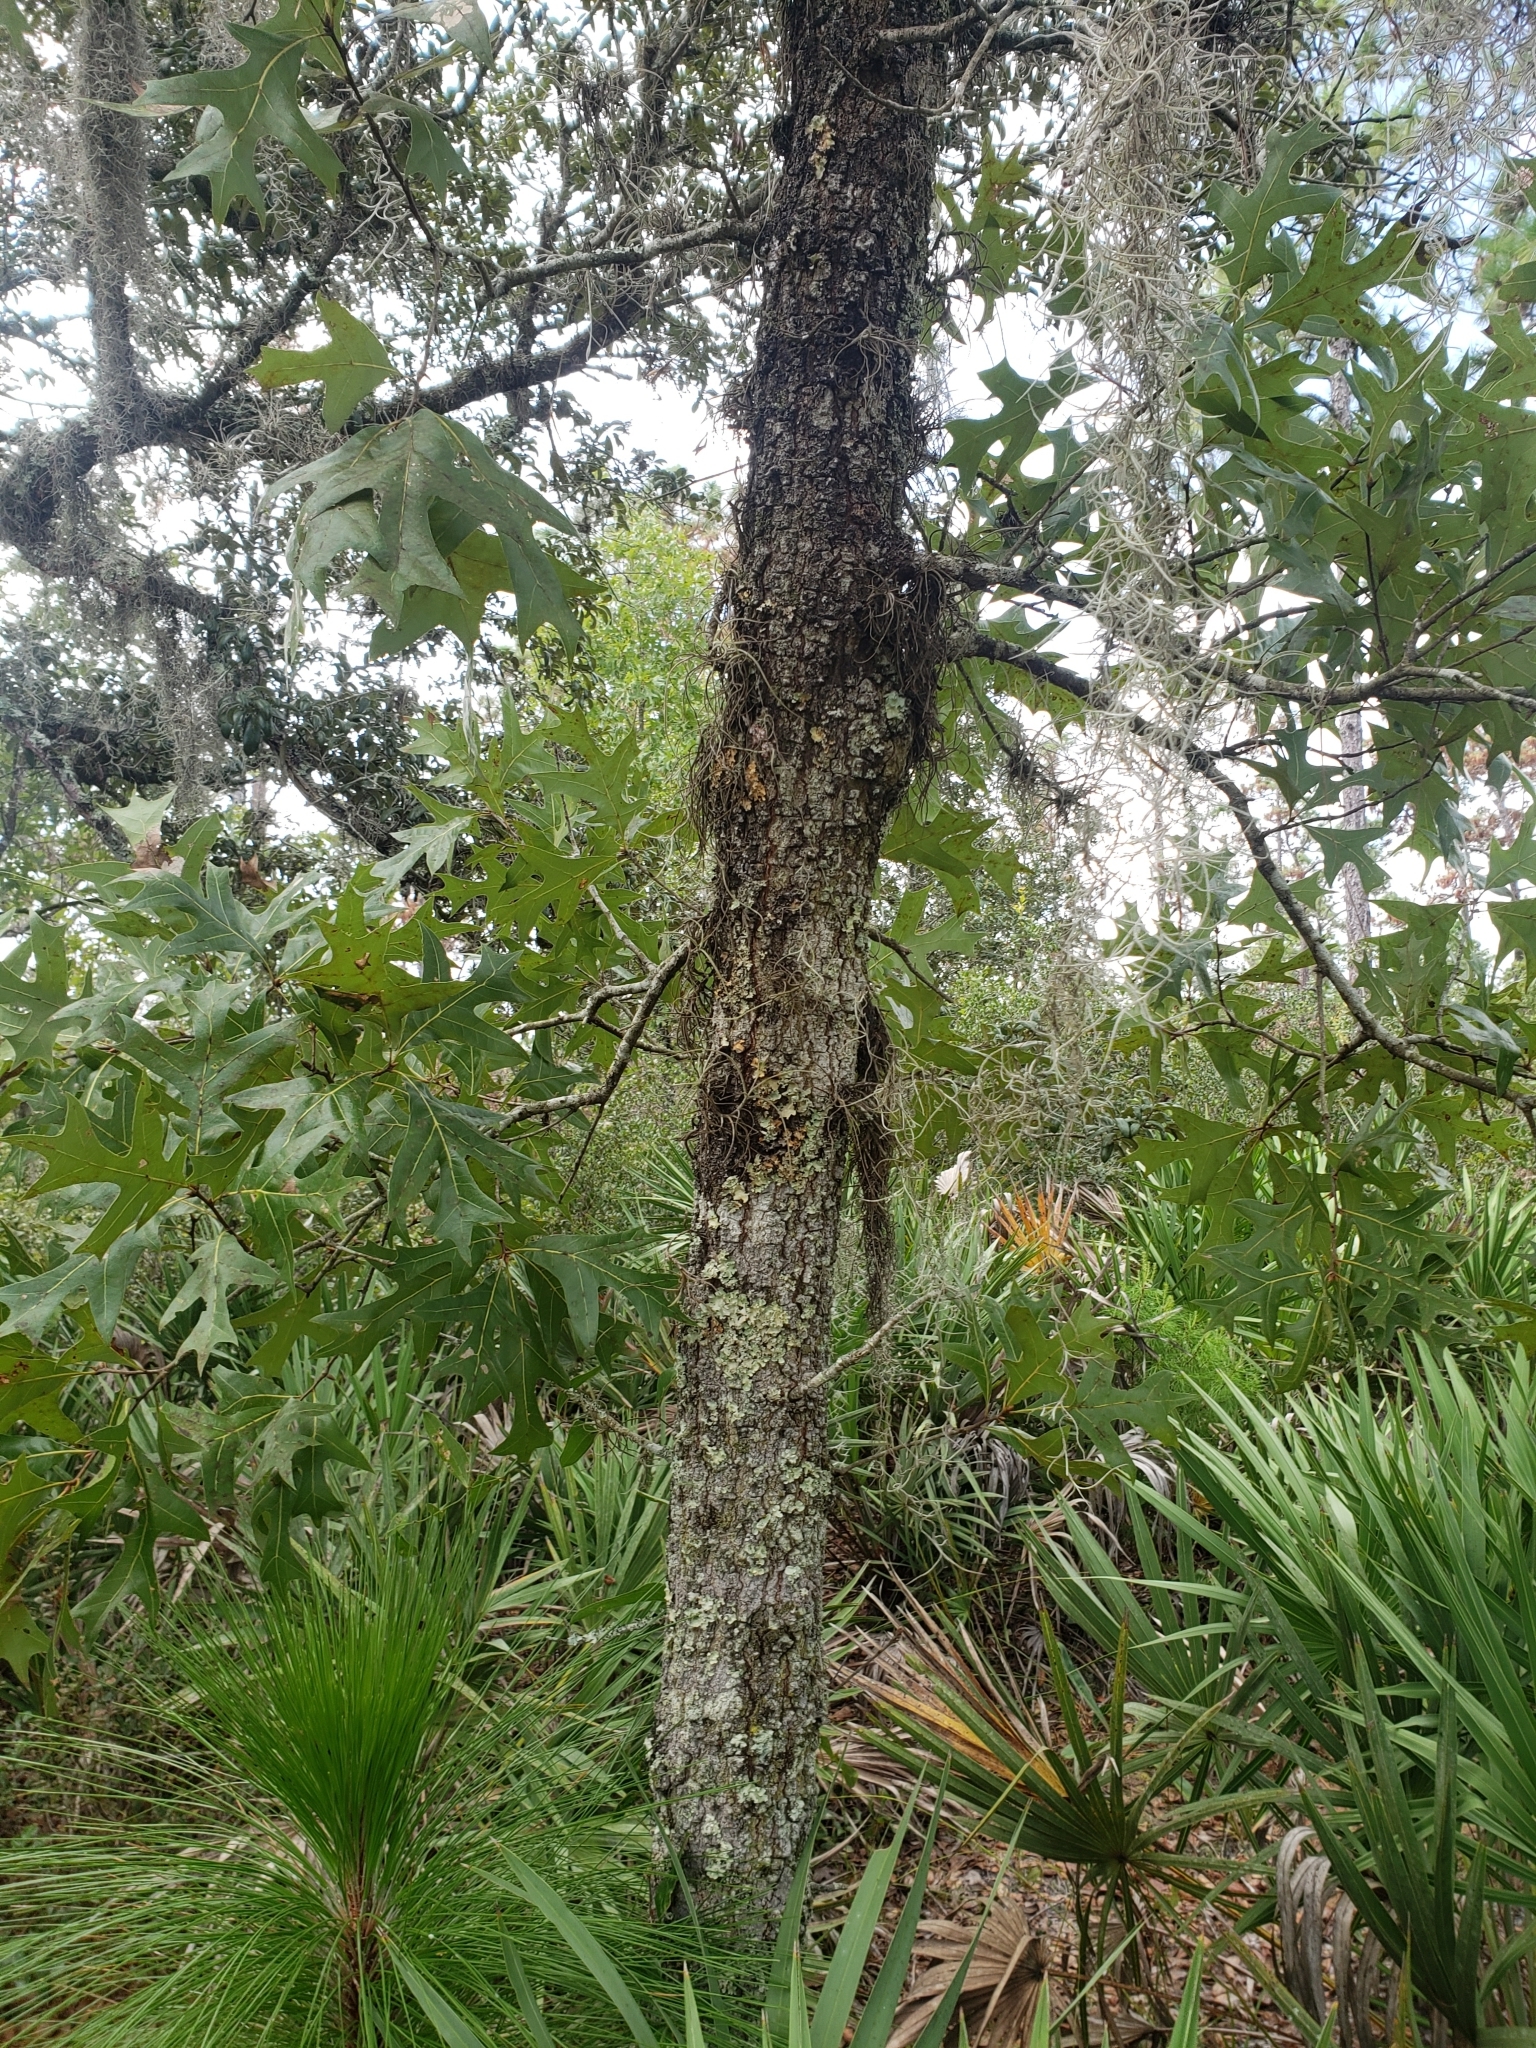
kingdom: Plantae
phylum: Tracheophyta
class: Magnoliopsida
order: Fagales
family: Fagaceae
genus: Quercus
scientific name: Quercus laevis
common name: Turkey oak
